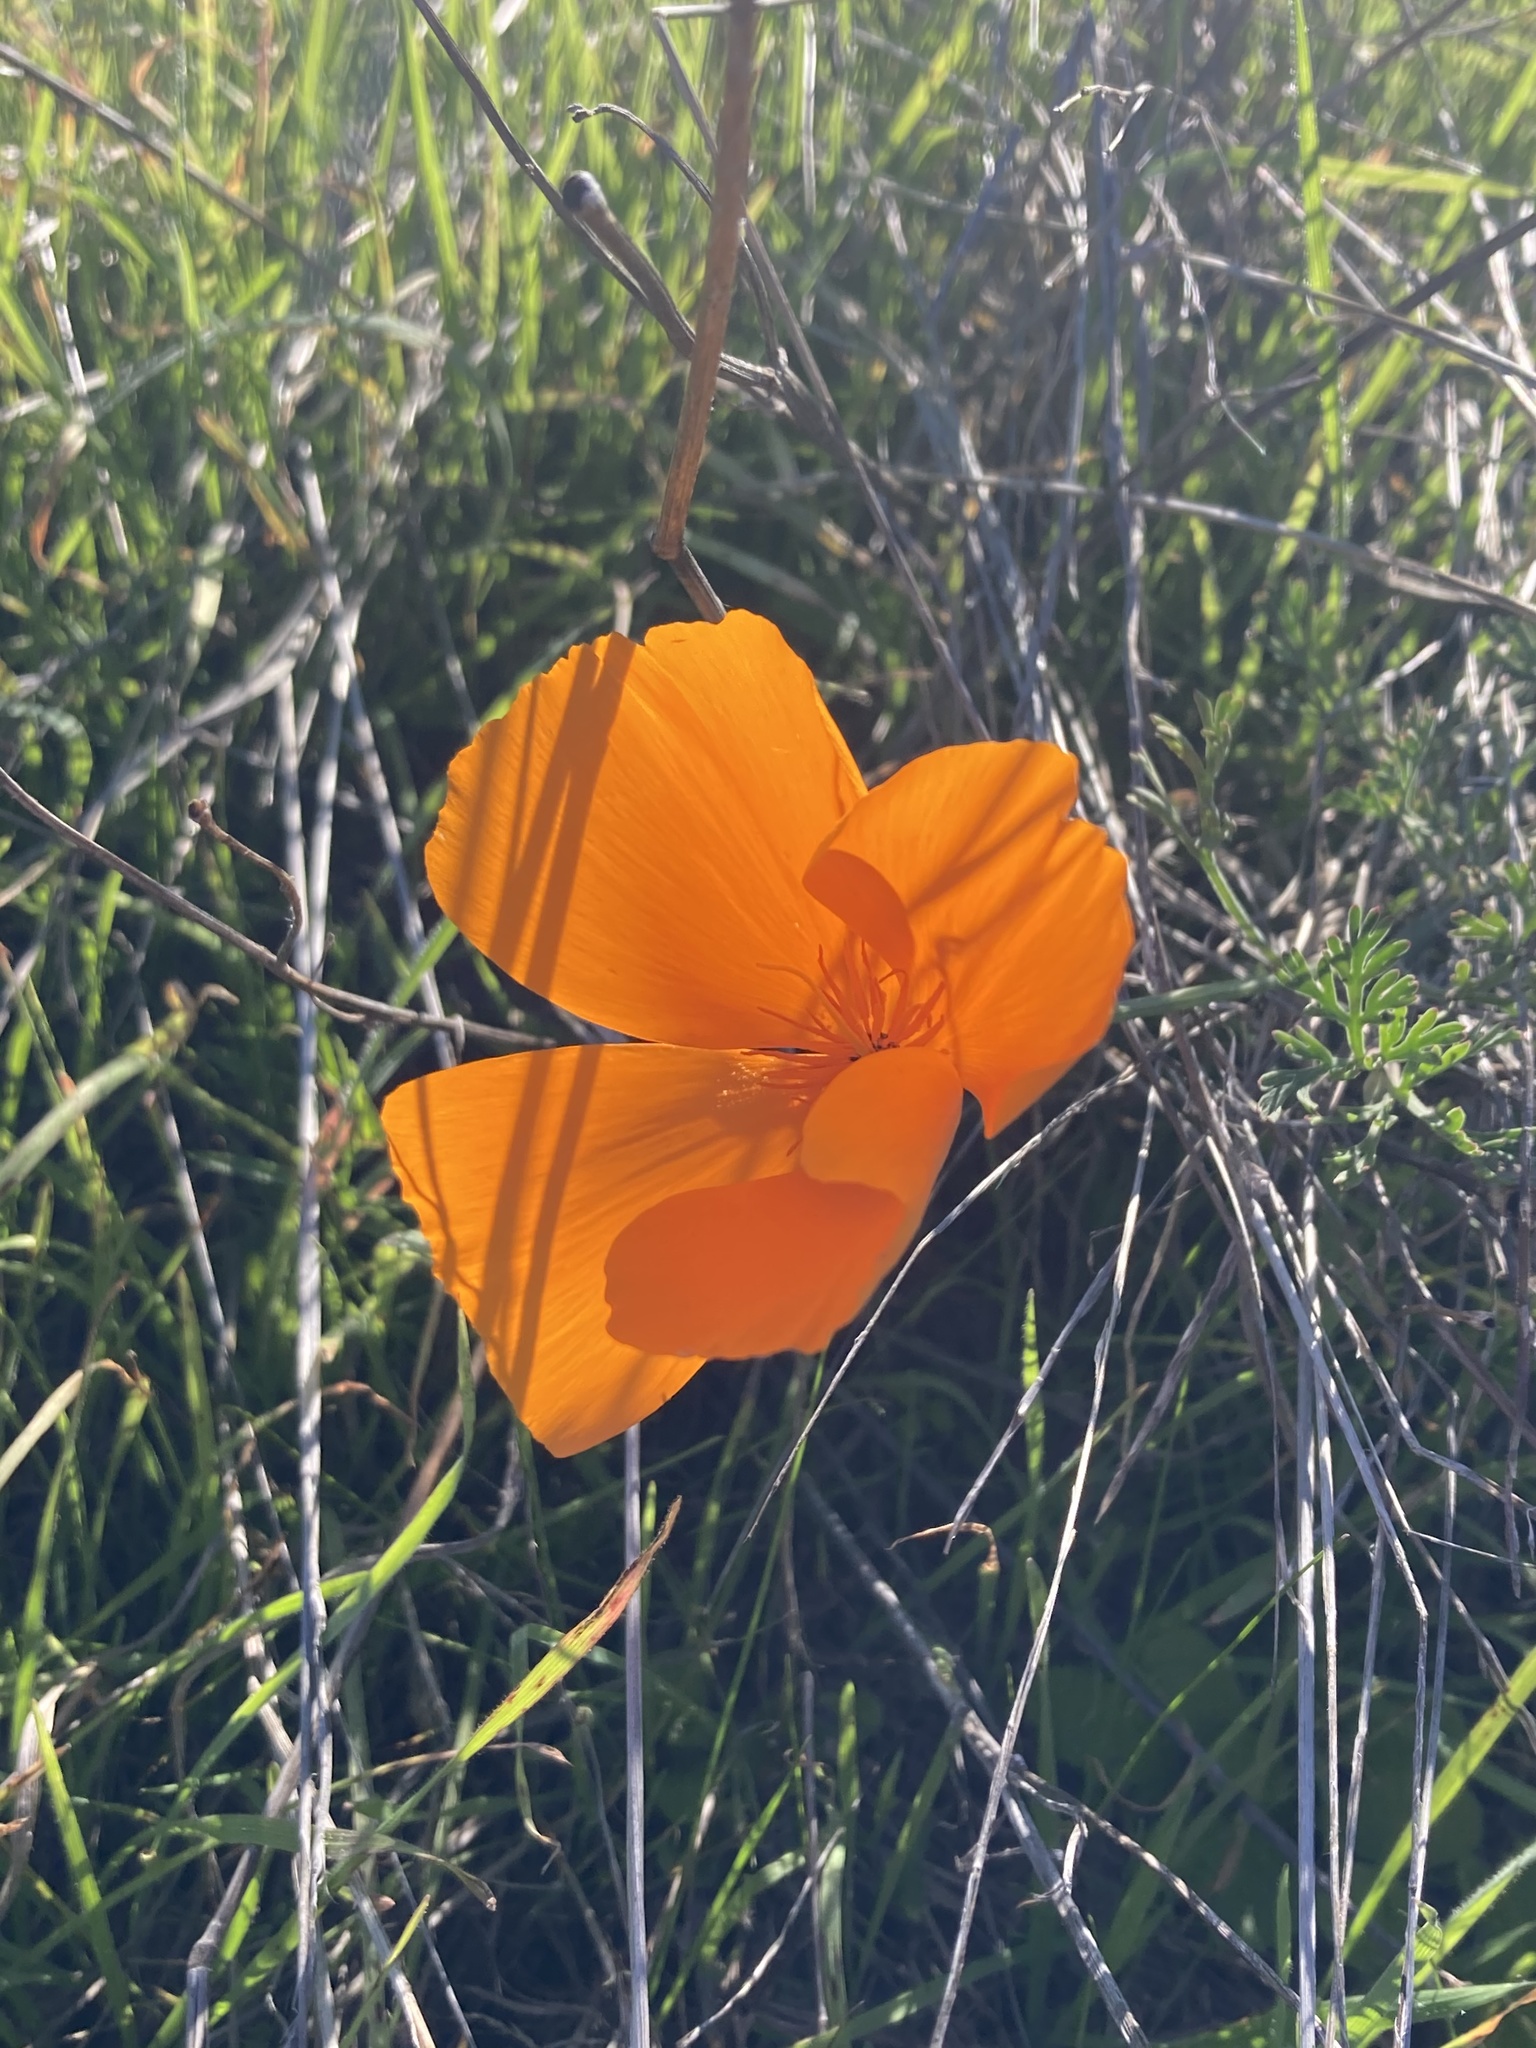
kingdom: Plantae
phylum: Tracheophyta
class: Magnoliopsida
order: Ranunculales
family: Papaveraceae
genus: Eschscholzia
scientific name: Eschscholzia californica
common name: California poppy
